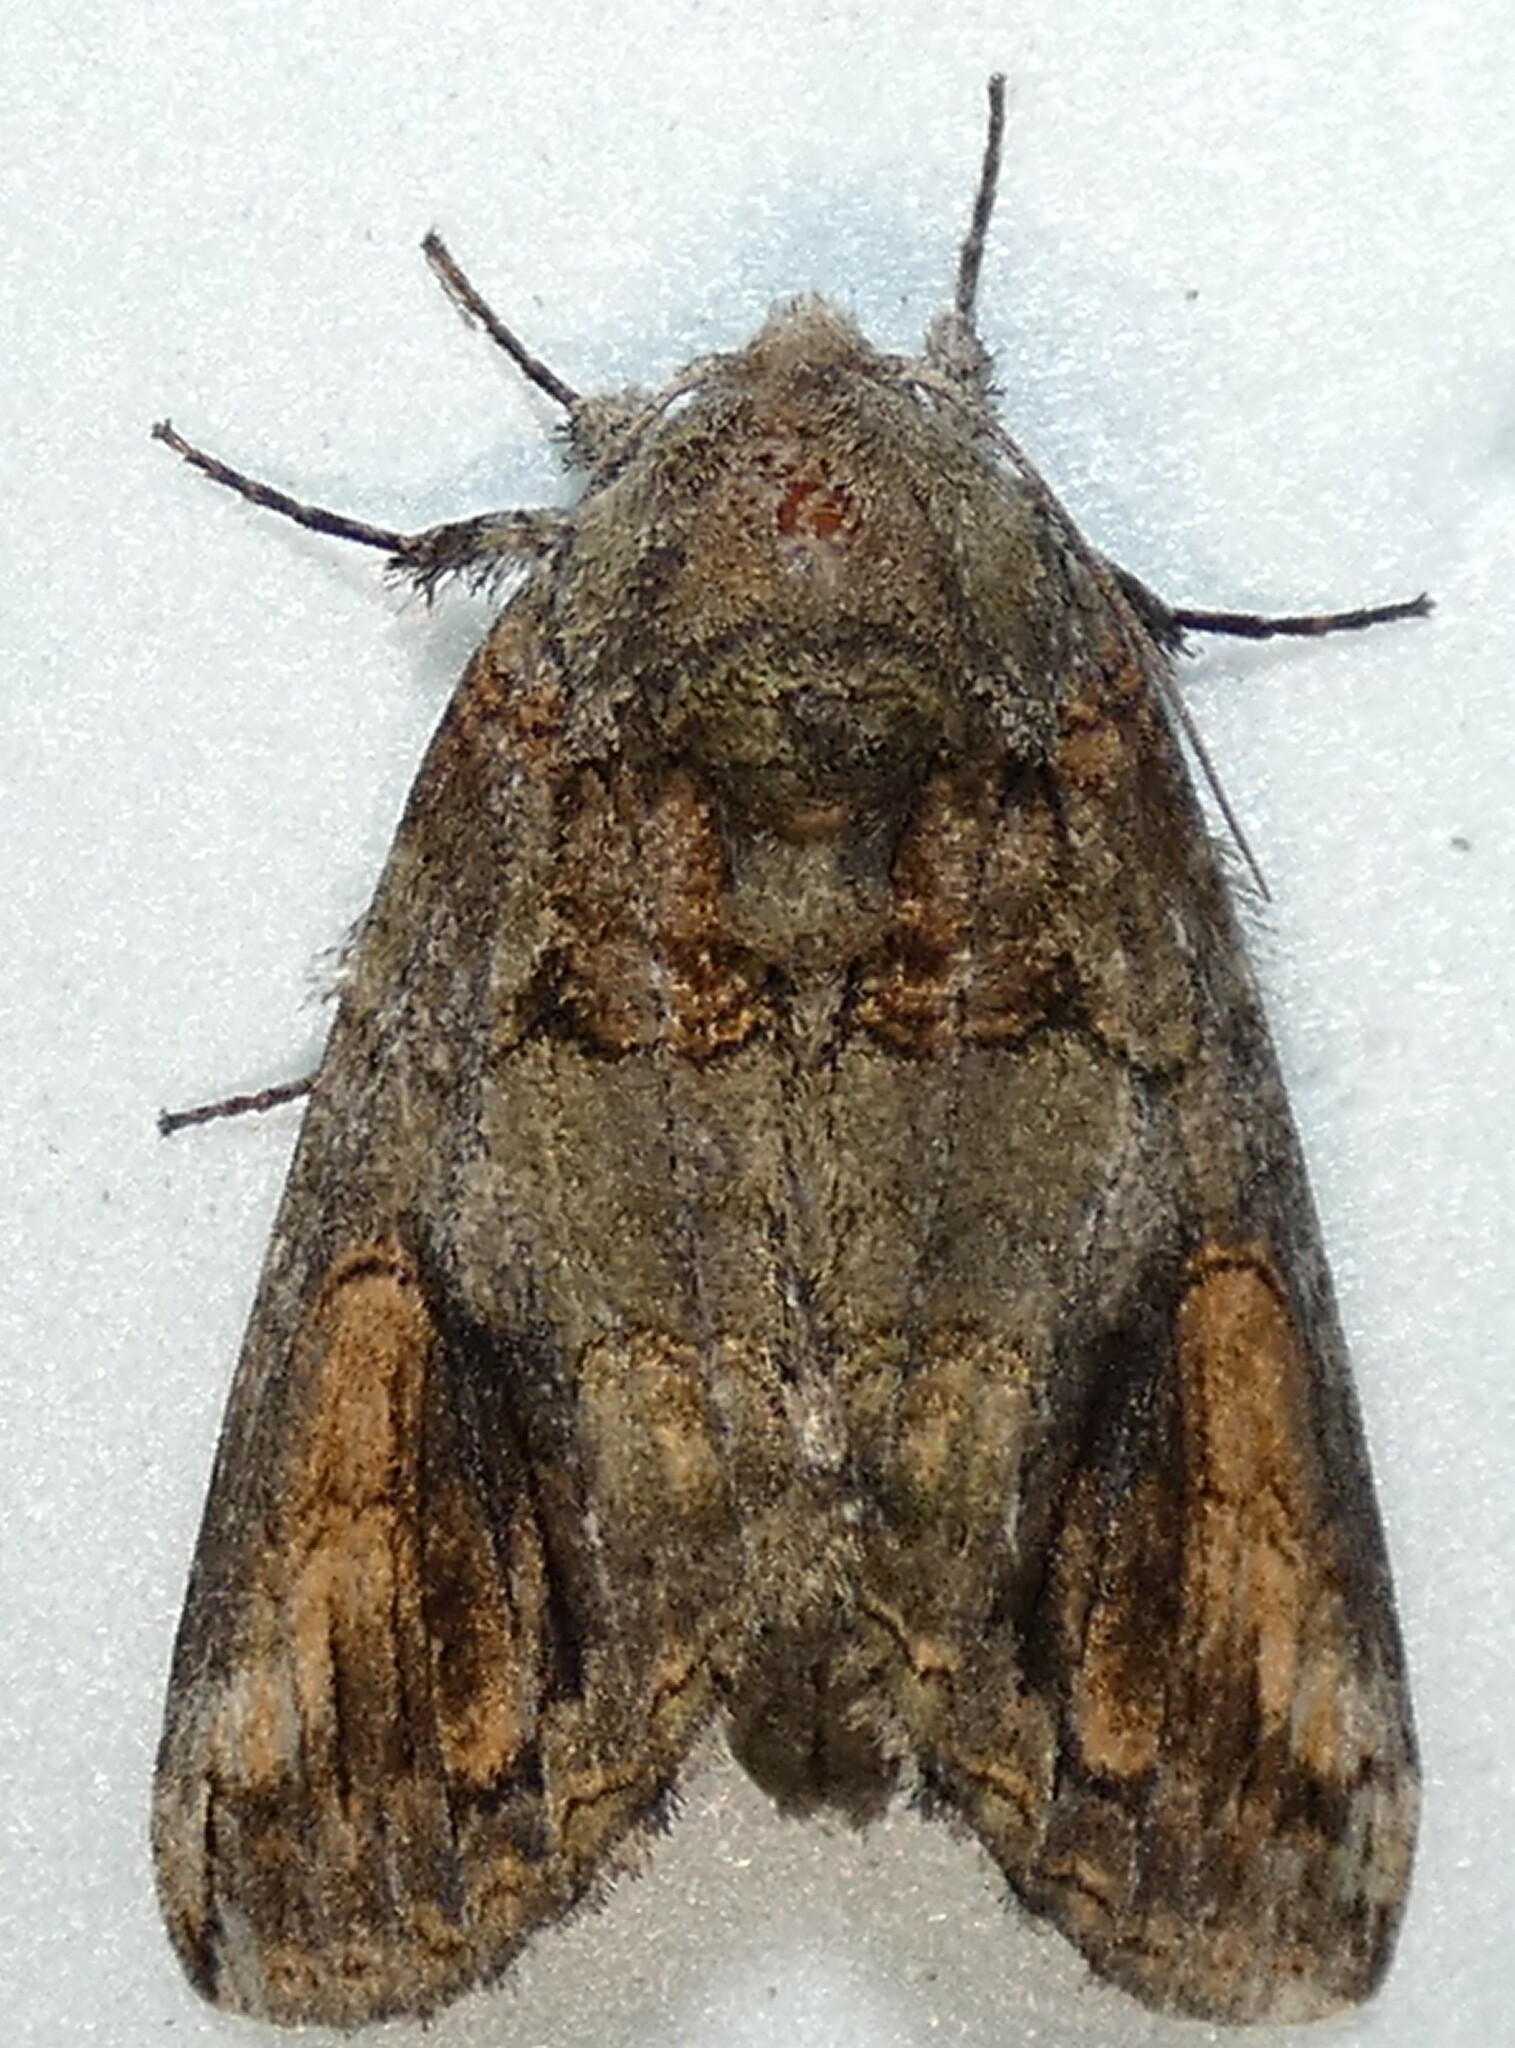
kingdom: Animalia
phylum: Arthropoda
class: Insecta
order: Lepidoptera
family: Notodontidae
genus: Heterocampa
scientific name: Heterocampa obliqua
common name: Oblique heterocampa
